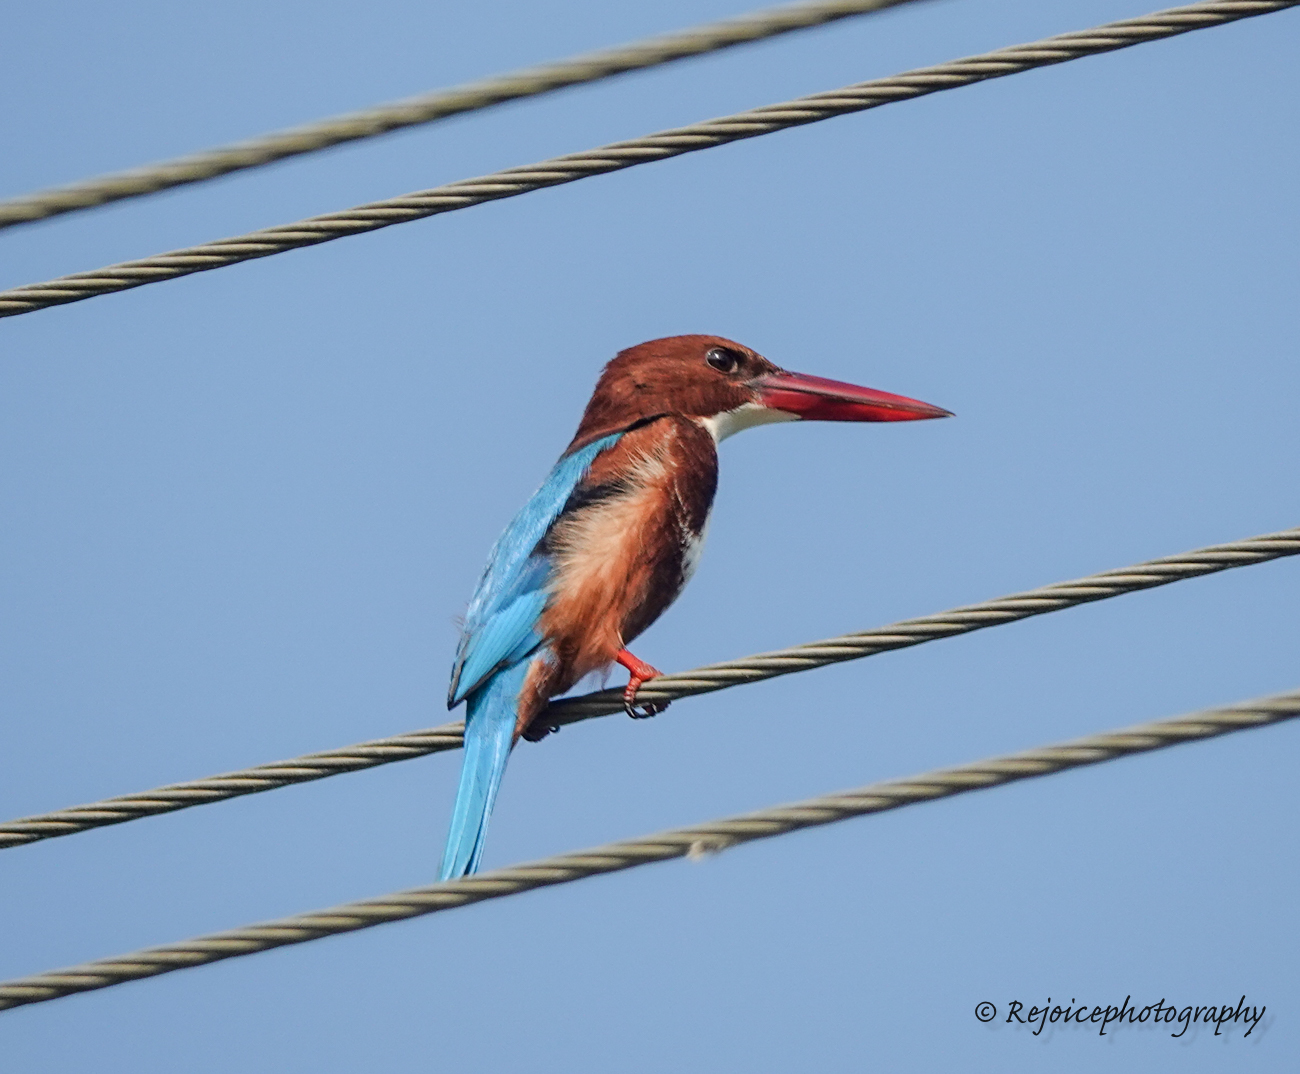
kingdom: Animalia
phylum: Chordata
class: Aves
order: Coraciiformes
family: Alcedinidae
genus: Halcyon
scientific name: Halcyon smyrnensis
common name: White-throated kingfisher
